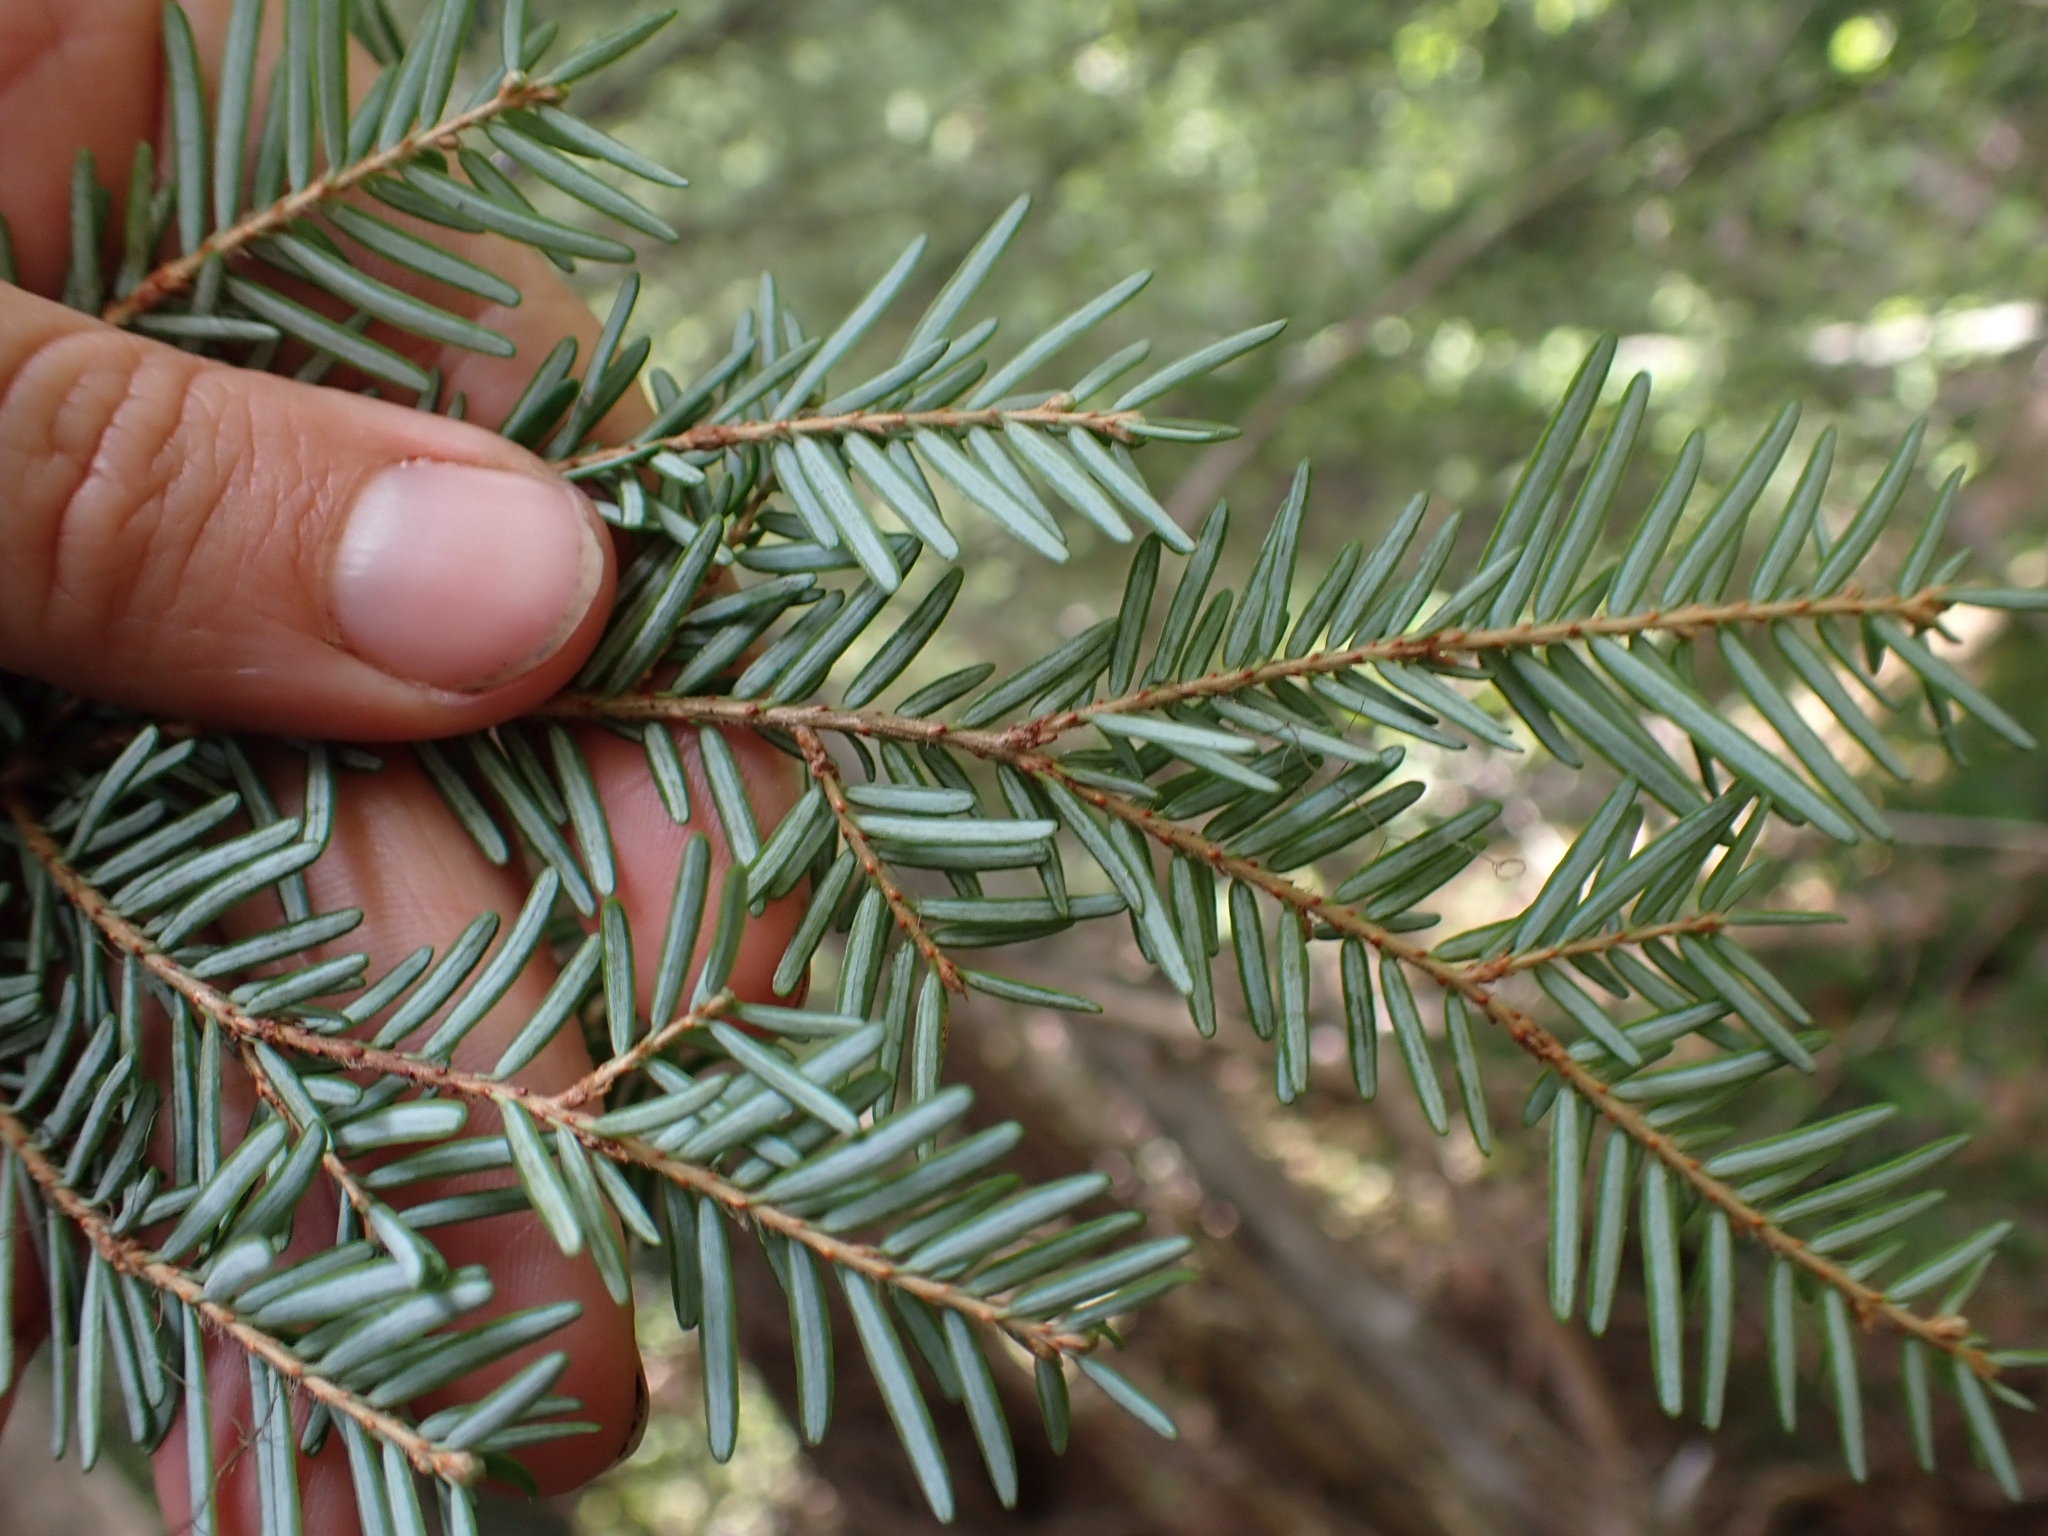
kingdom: Plantae
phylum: Tracheophyta
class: Pinopsida
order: Pinales
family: Pinaceae
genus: Tsuga
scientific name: Tsuga heterophylla
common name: Western hemlock
